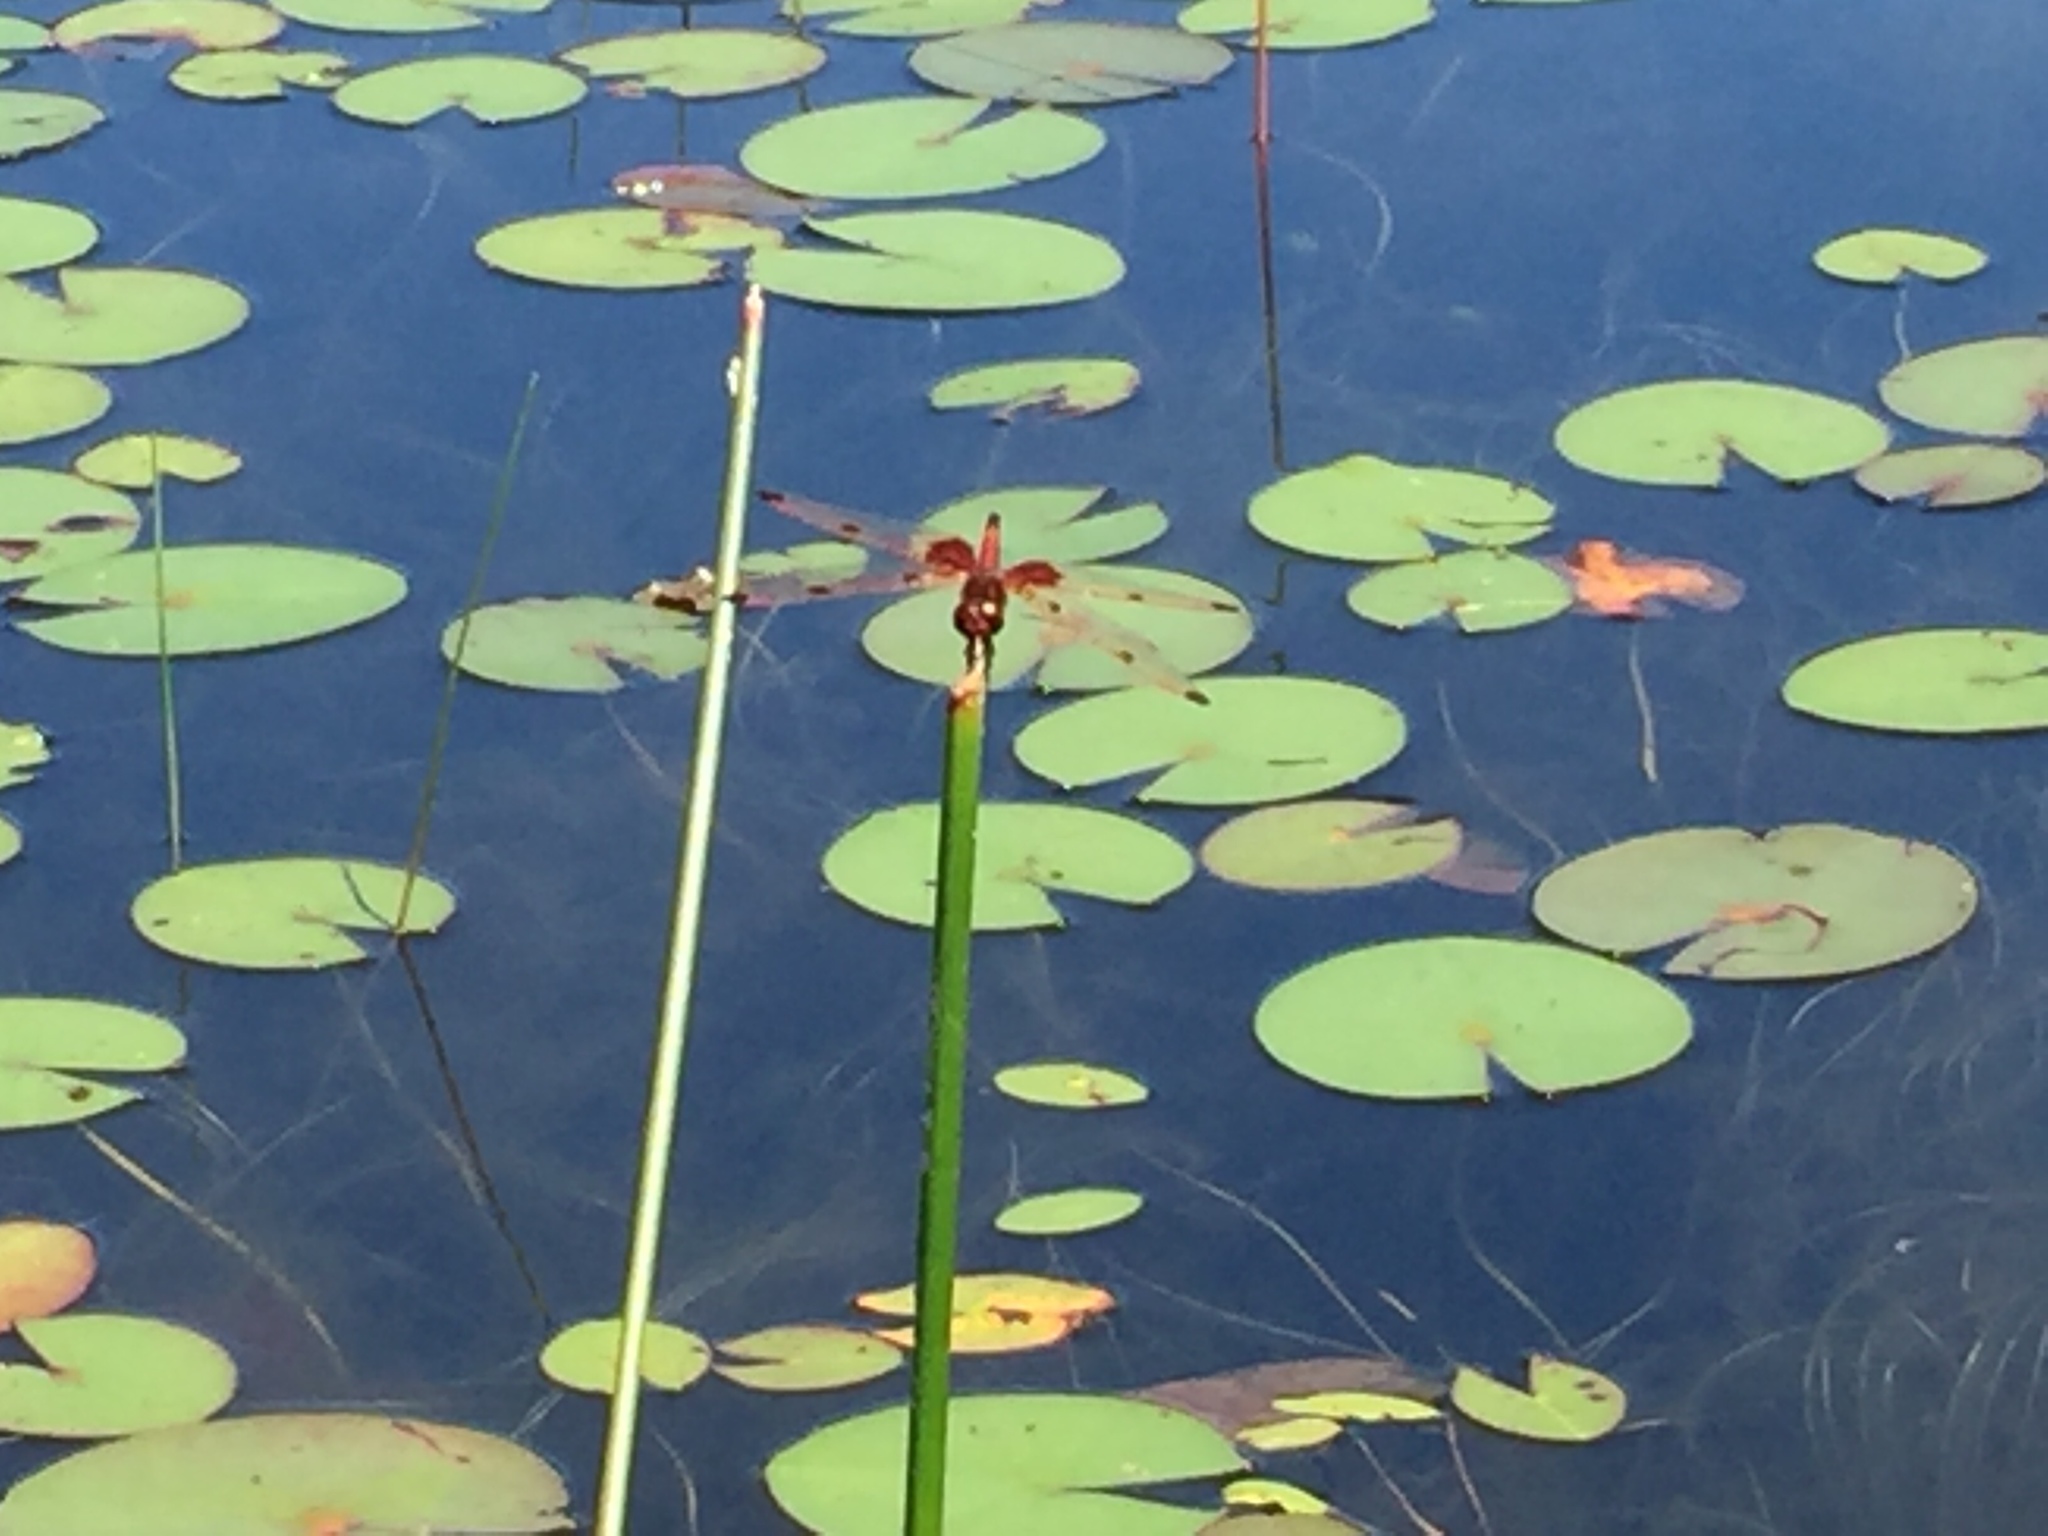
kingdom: Animalia
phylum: Arthropoda
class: Insecta
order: Odonata
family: Libellulidae
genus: Celithemis
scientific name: Celithemis elisa
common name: Calico pennant
